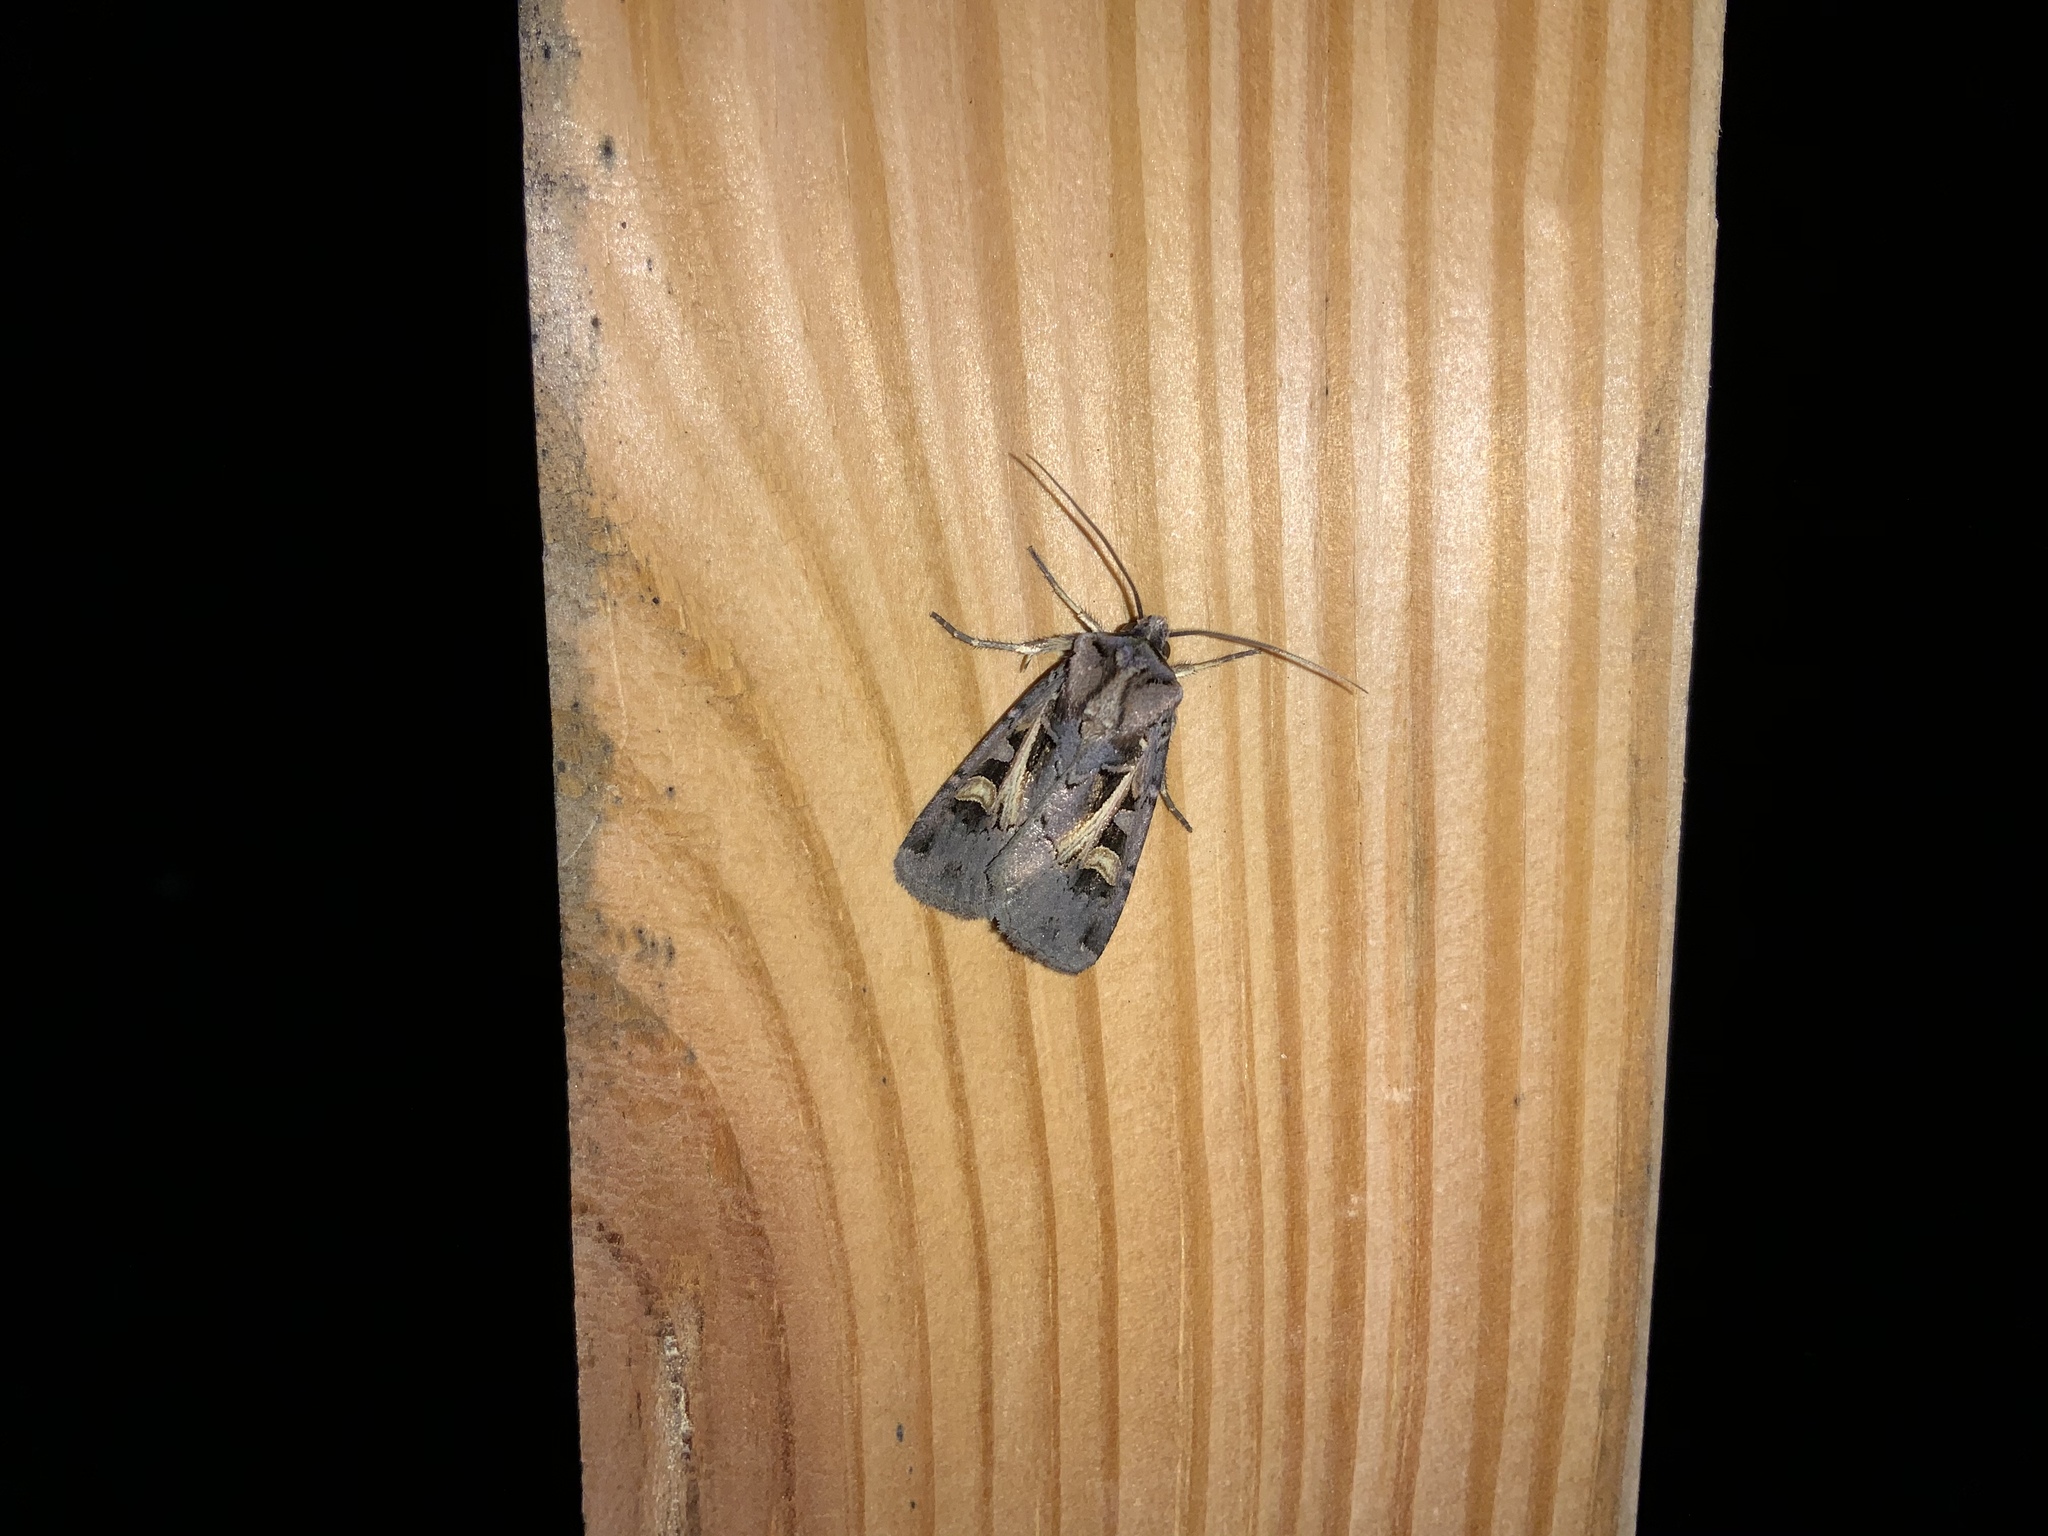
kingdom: Animalia
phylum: Arthropoda
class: Insecta
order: Lepidoptera
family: Noctuidae
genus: Feltia
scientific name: Feltia herilis
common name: Master's dart
